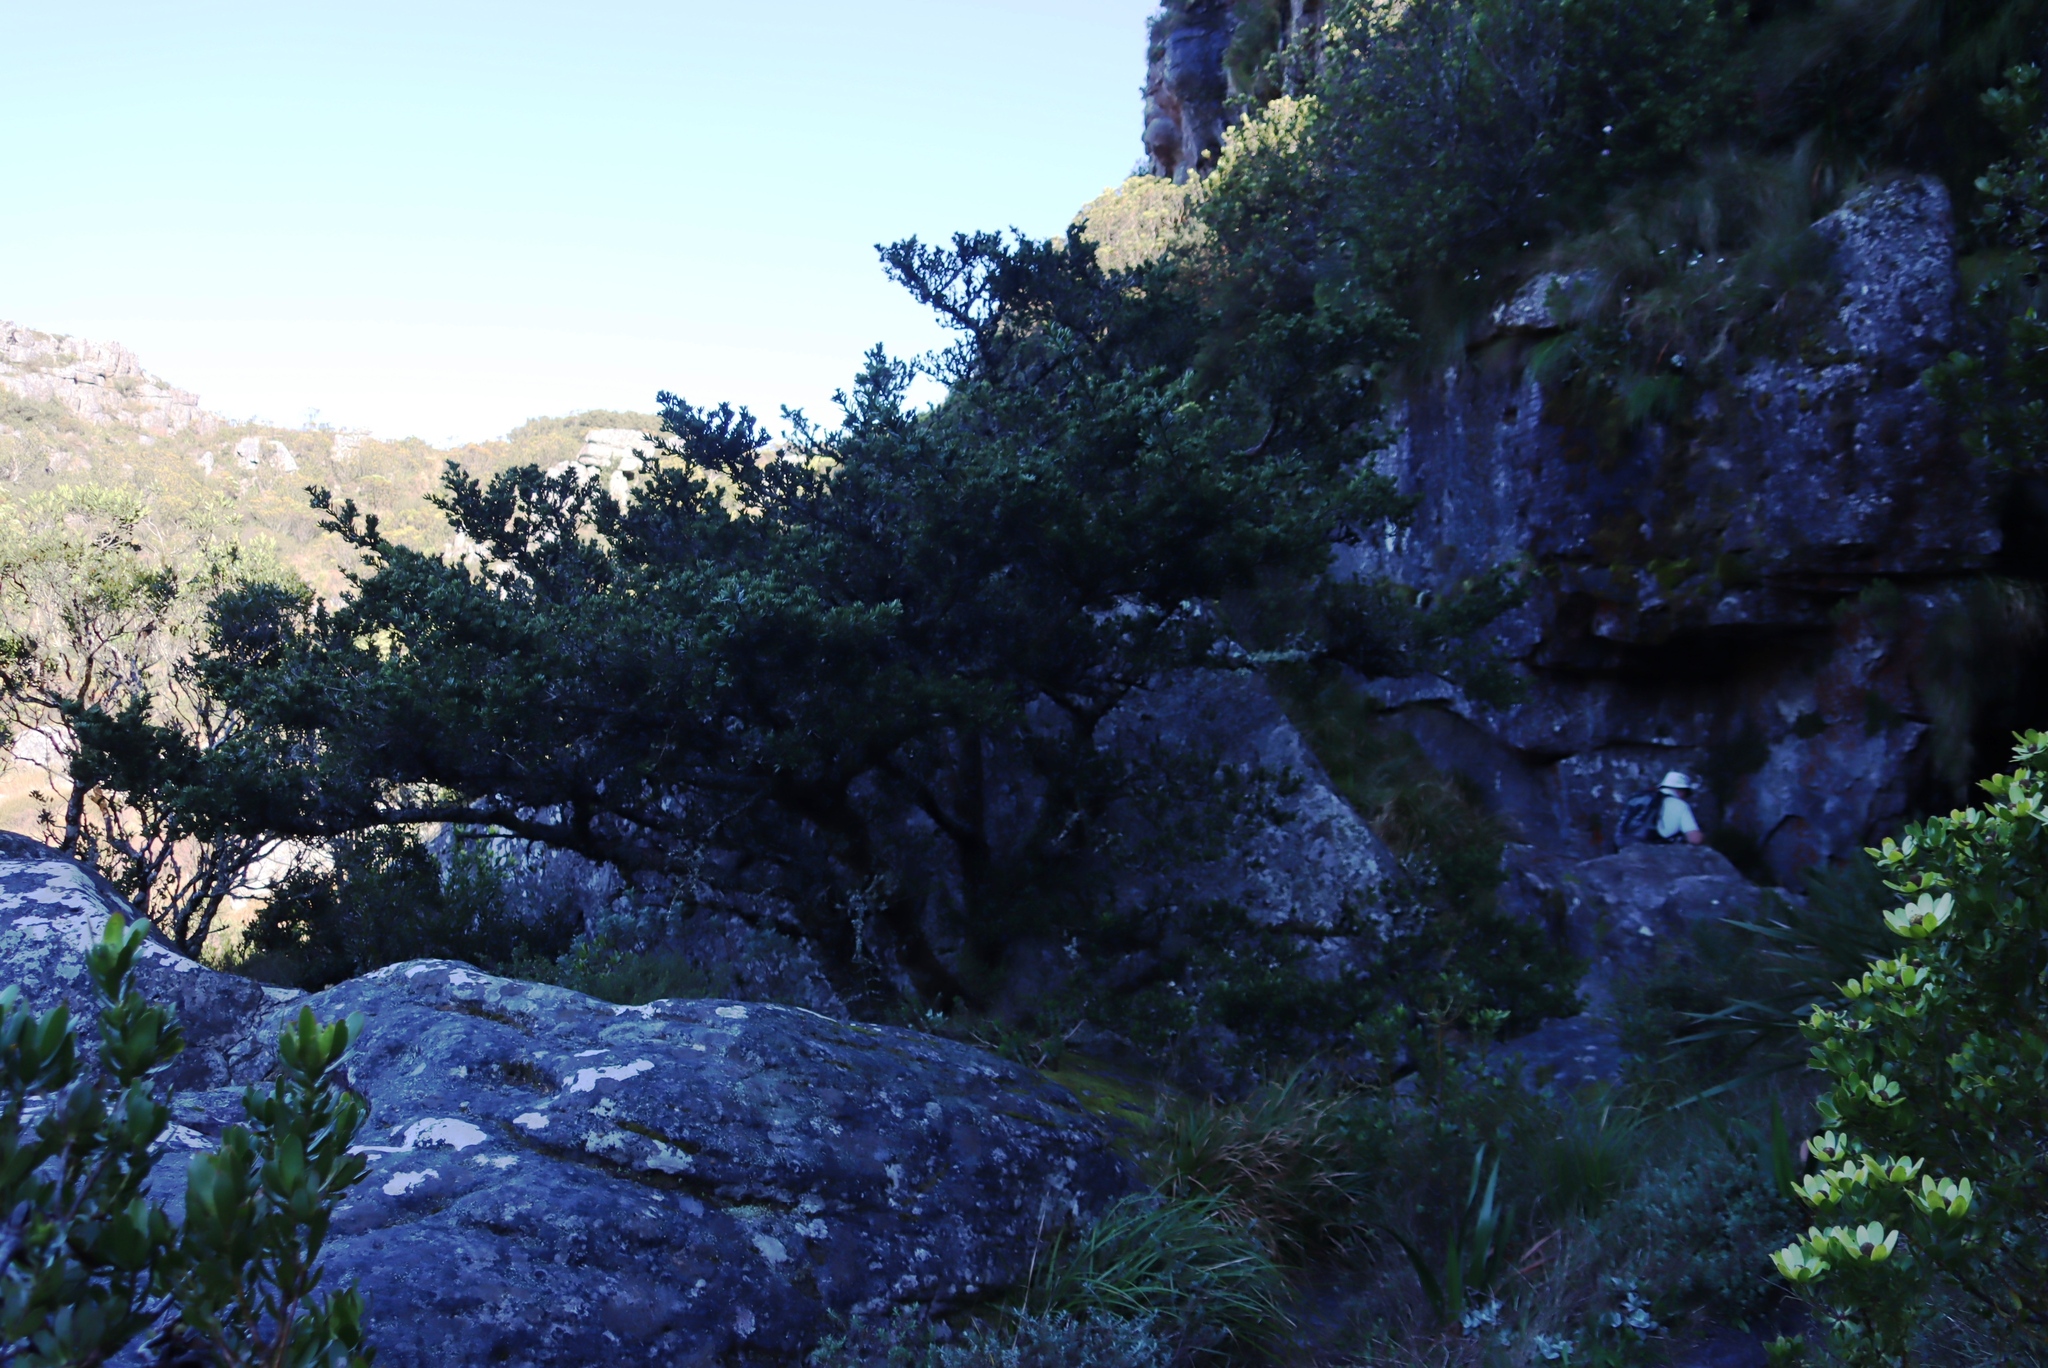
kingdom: Plantae
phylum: Tracheophyta
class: Pinopsida
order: Pinales
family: Podocarpaceae
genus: Podocarpus
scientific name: Podocarpus latifolius
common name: True yellowwood
